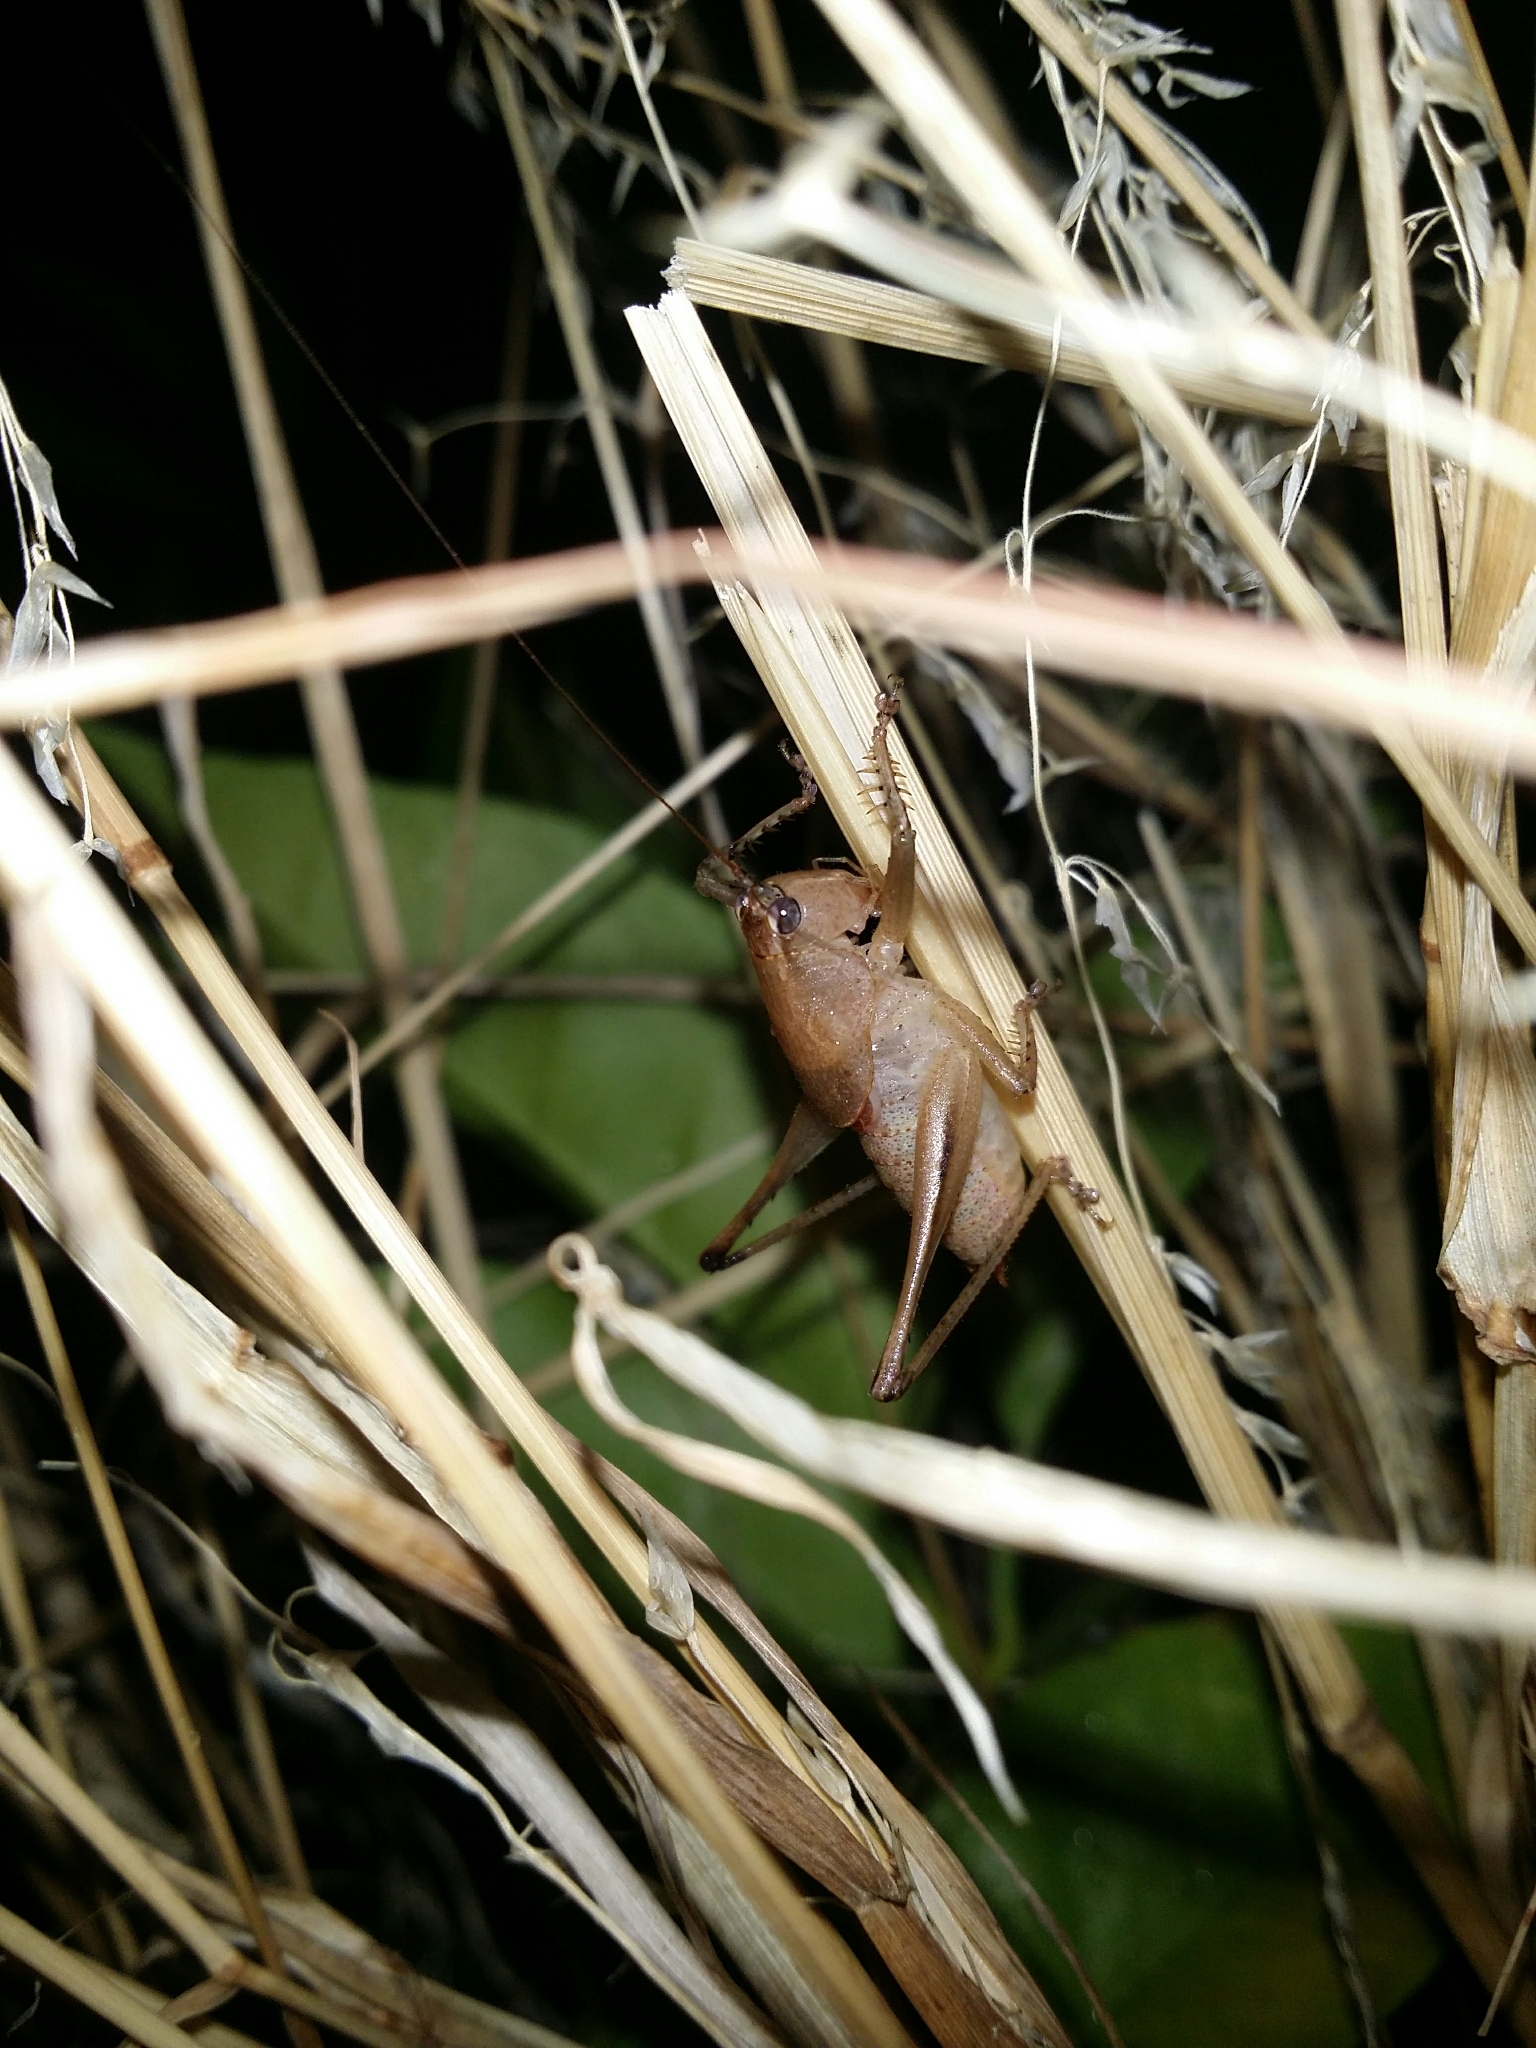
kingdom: Animalia
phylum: Arthropoda
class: Insecta
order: Orthoptera
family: Tettigoniidae
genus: Requena
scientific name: Requena verticalis
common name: Common western requena
